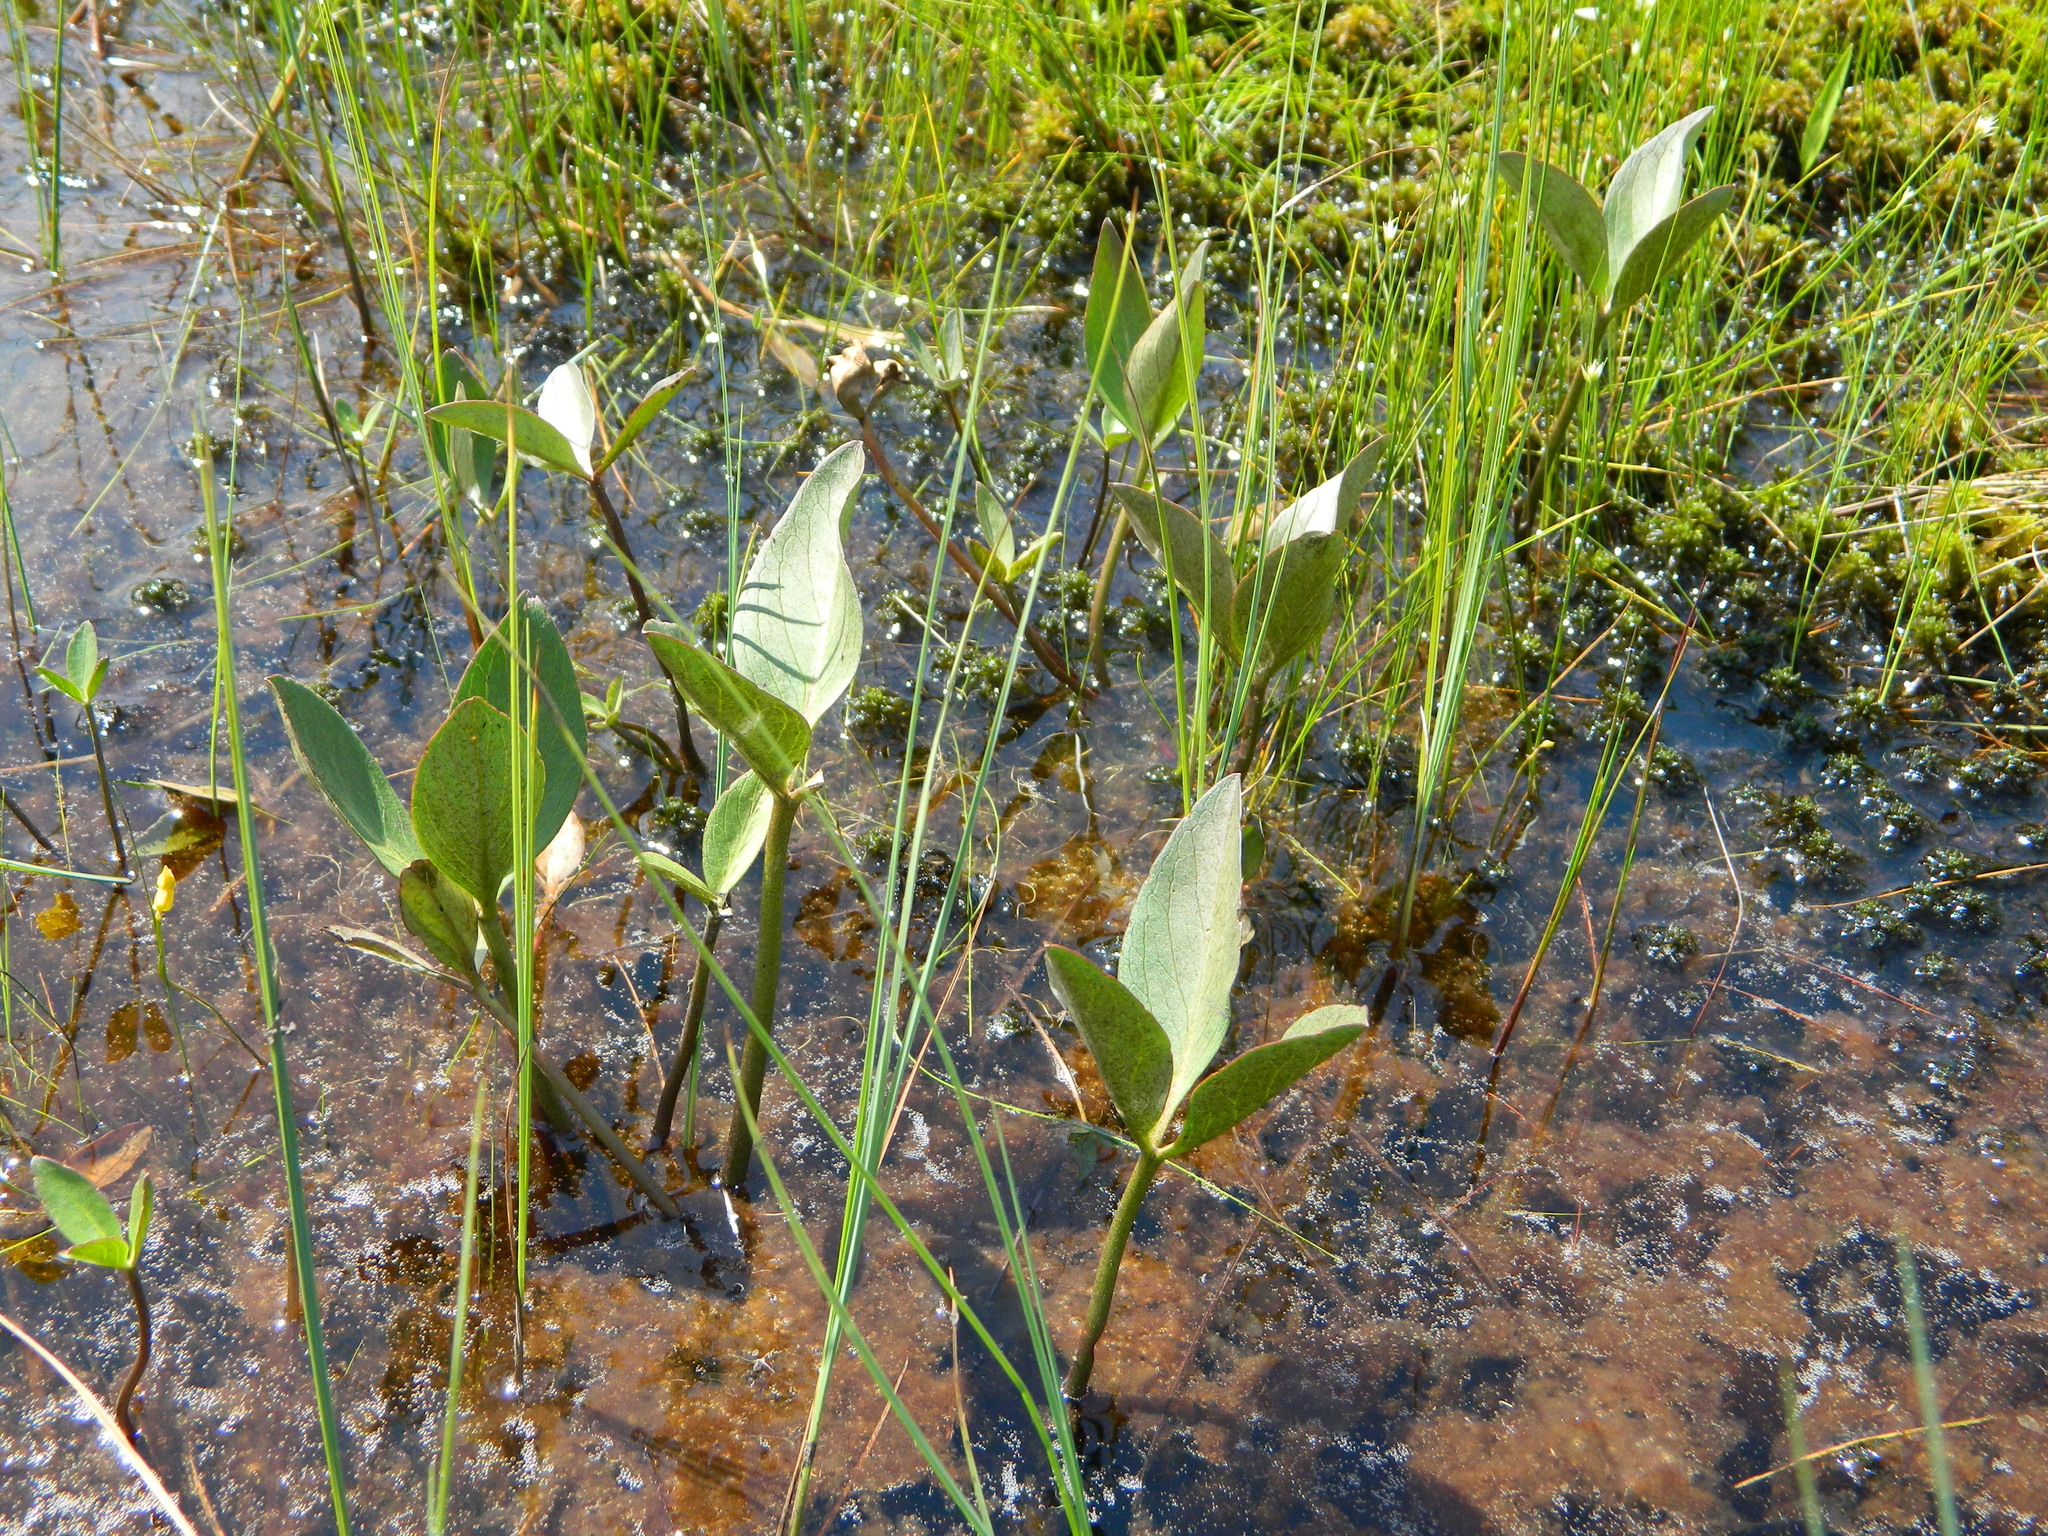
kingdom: Plantae
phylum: Tracheophyta
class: Magnoliopsida
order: Asterales
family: Menyanthaceae
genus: Menyanthes
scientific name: Menyanthes trifoliata
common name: Bogbean
